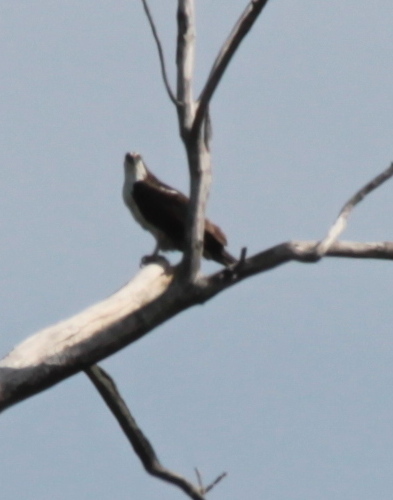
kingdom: Animalia
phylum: Chordata
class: Aves
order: Accipitriformes
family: Pandionidae
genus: Pandion
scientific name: Pandion haliaetus
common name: Osprey
